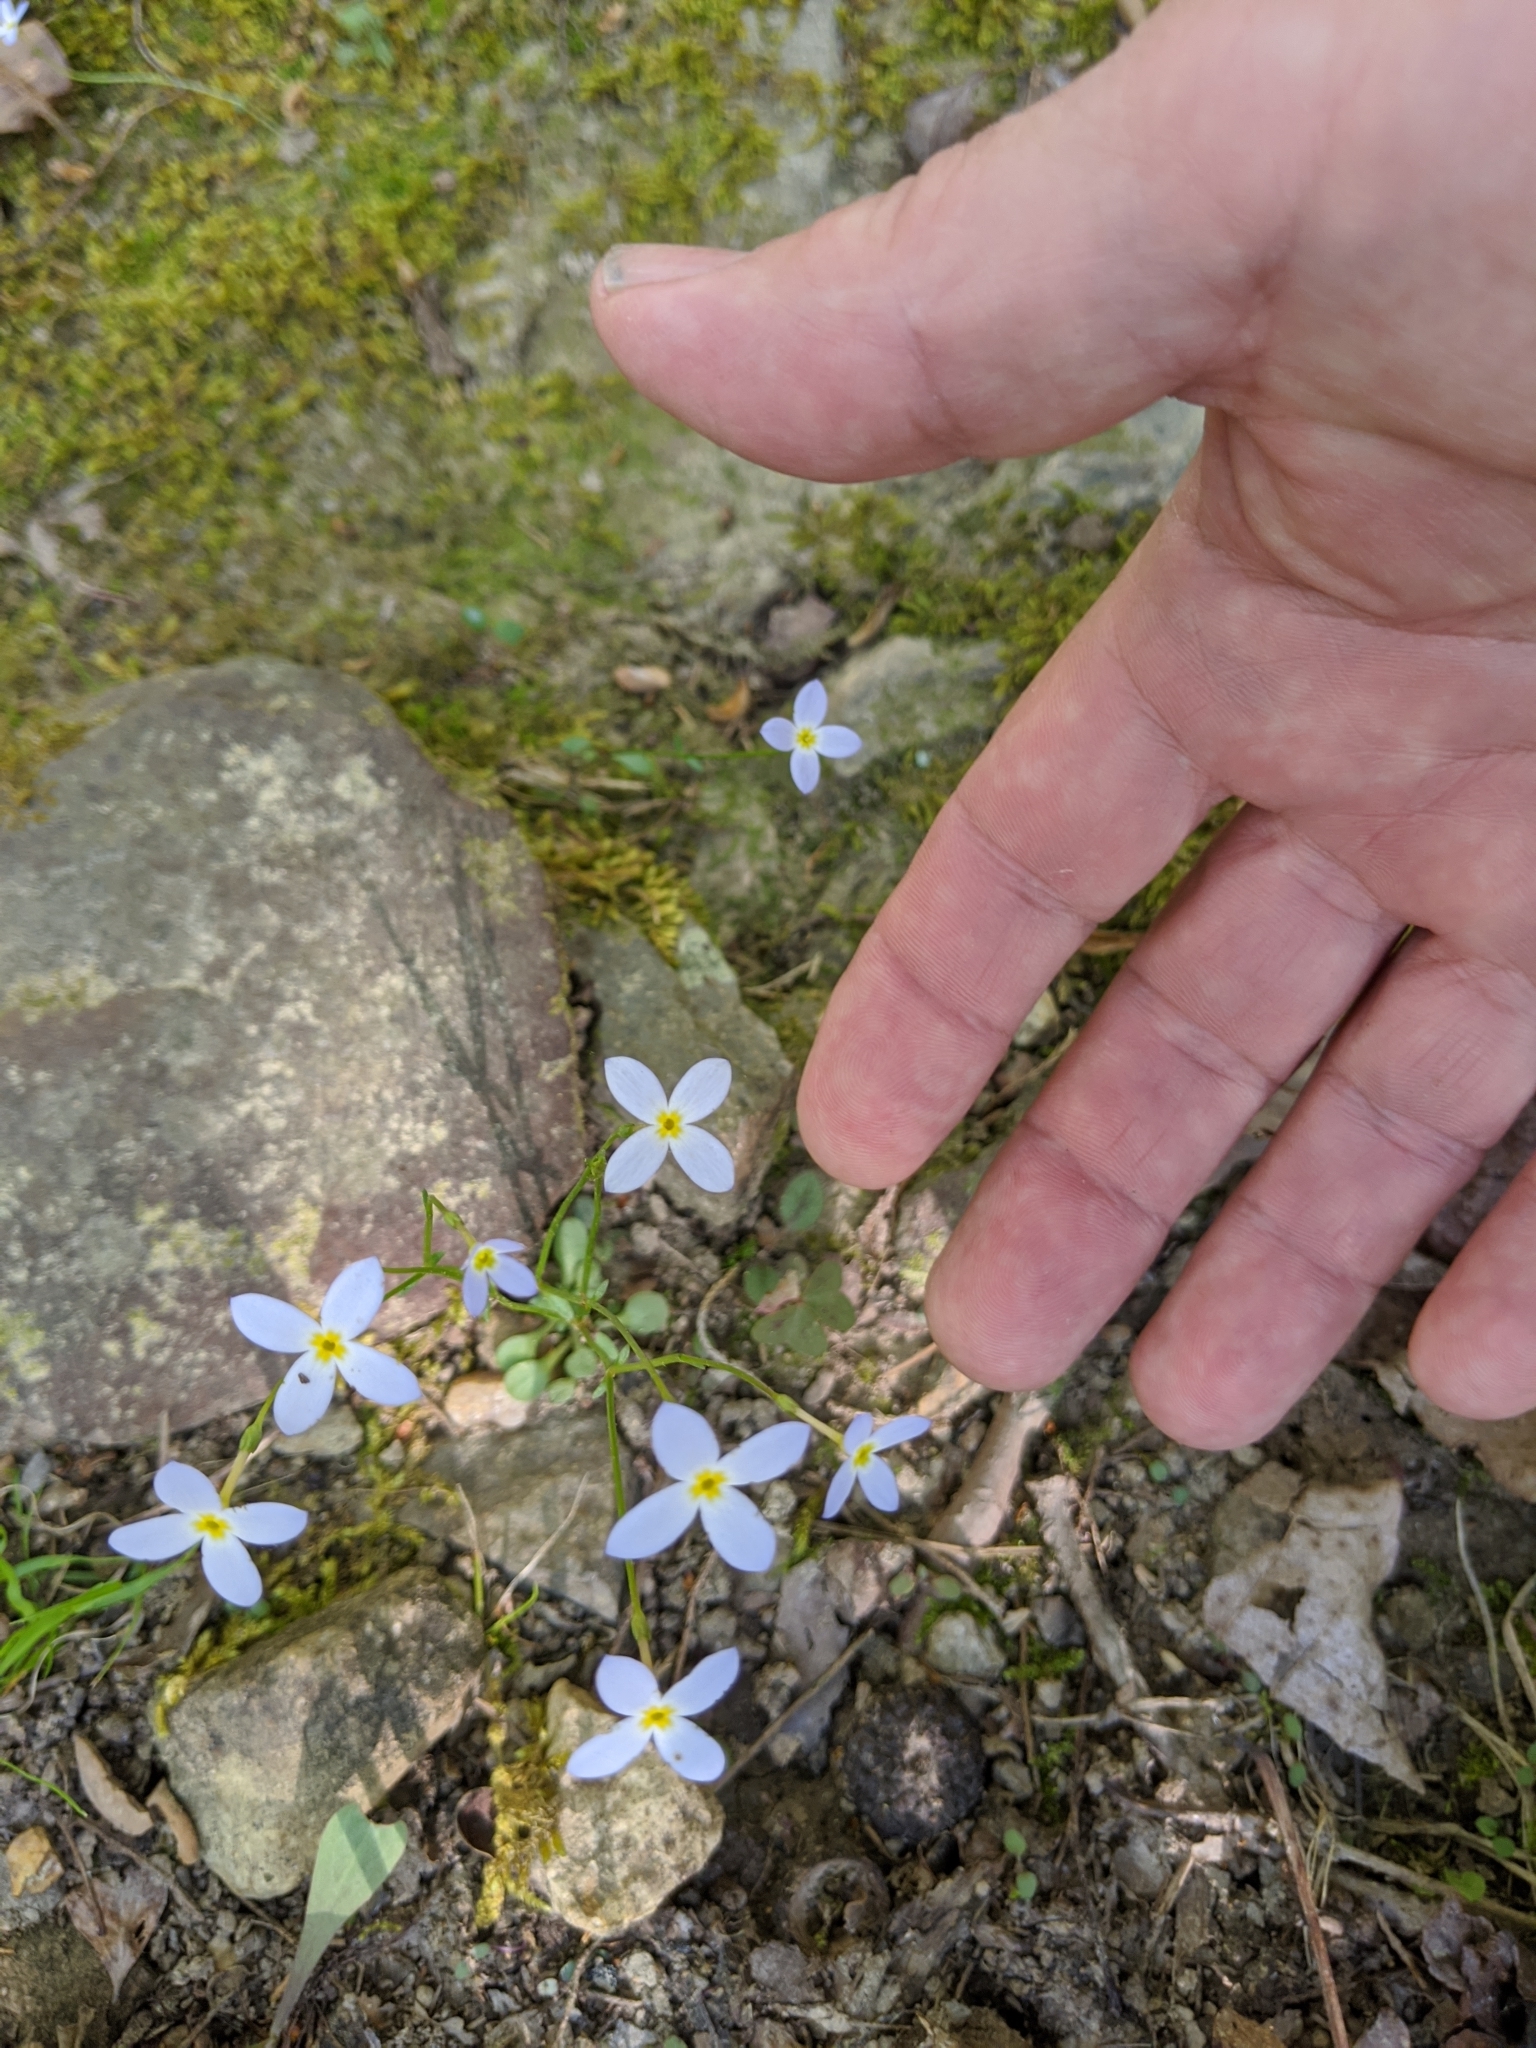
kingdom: Plantae
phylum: Tracheophyta
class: Magnoliopsida
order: Gentianales
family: Rubiaceae
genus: Houstonia
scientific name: Houstonia caerulea
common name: Bluets
